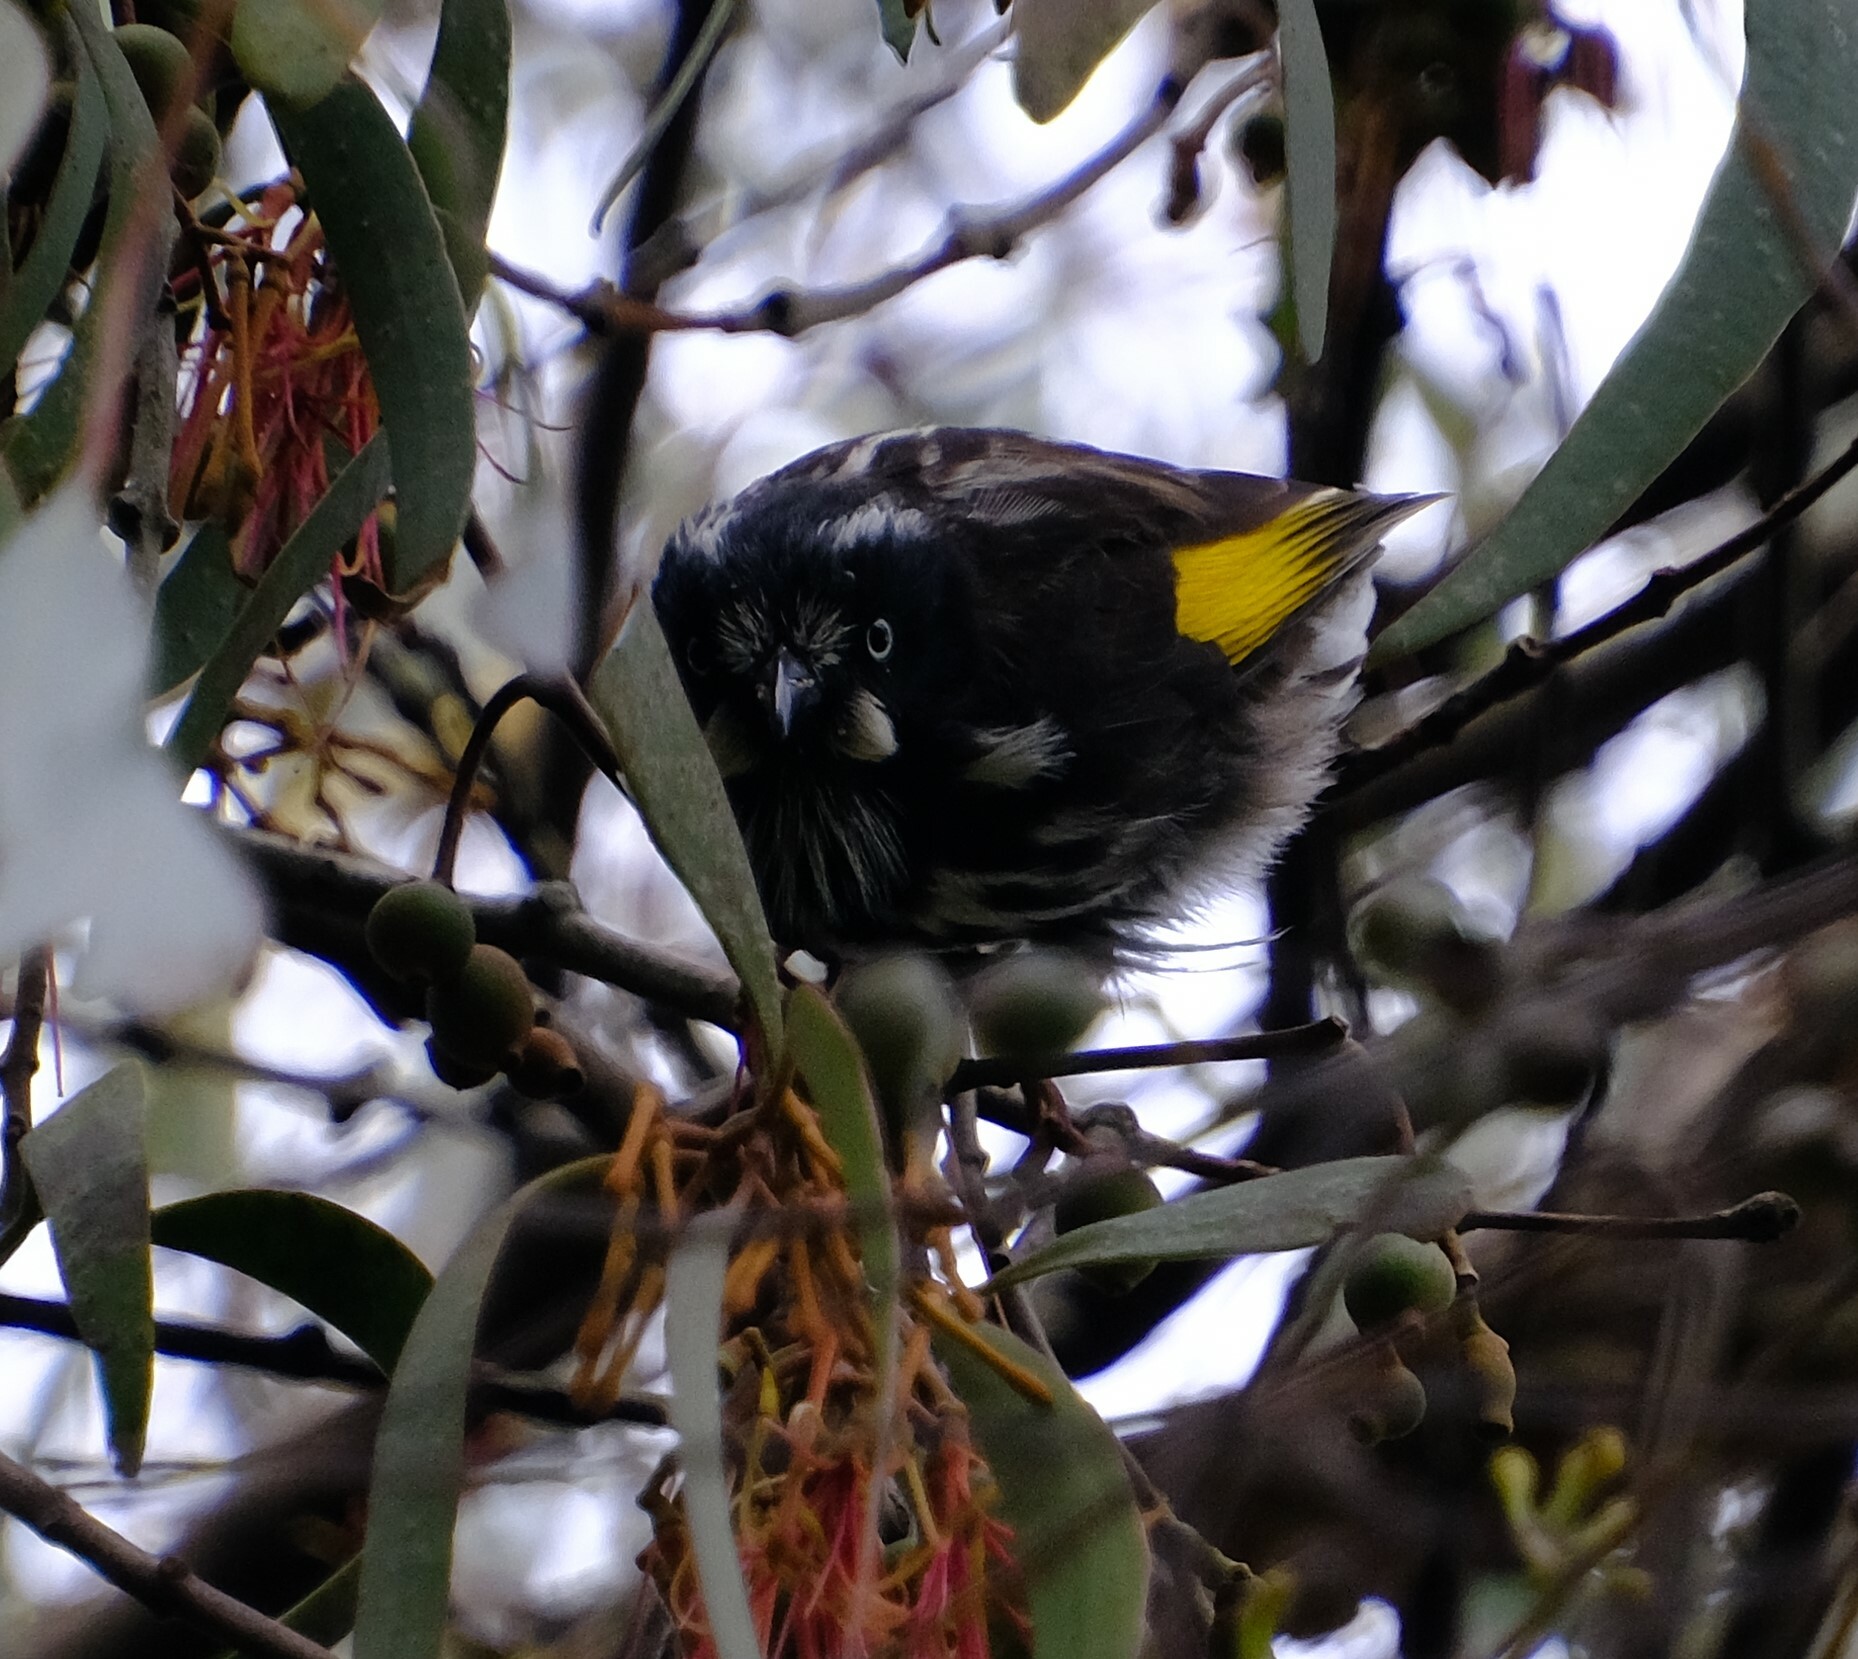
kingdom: Animalia
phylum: Chordata
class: Aves
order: Passeriformes
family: Meliphagidae
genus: Phylidonyris
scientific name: Phylidonyris novaehollandiae
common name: New holland honeyeater
